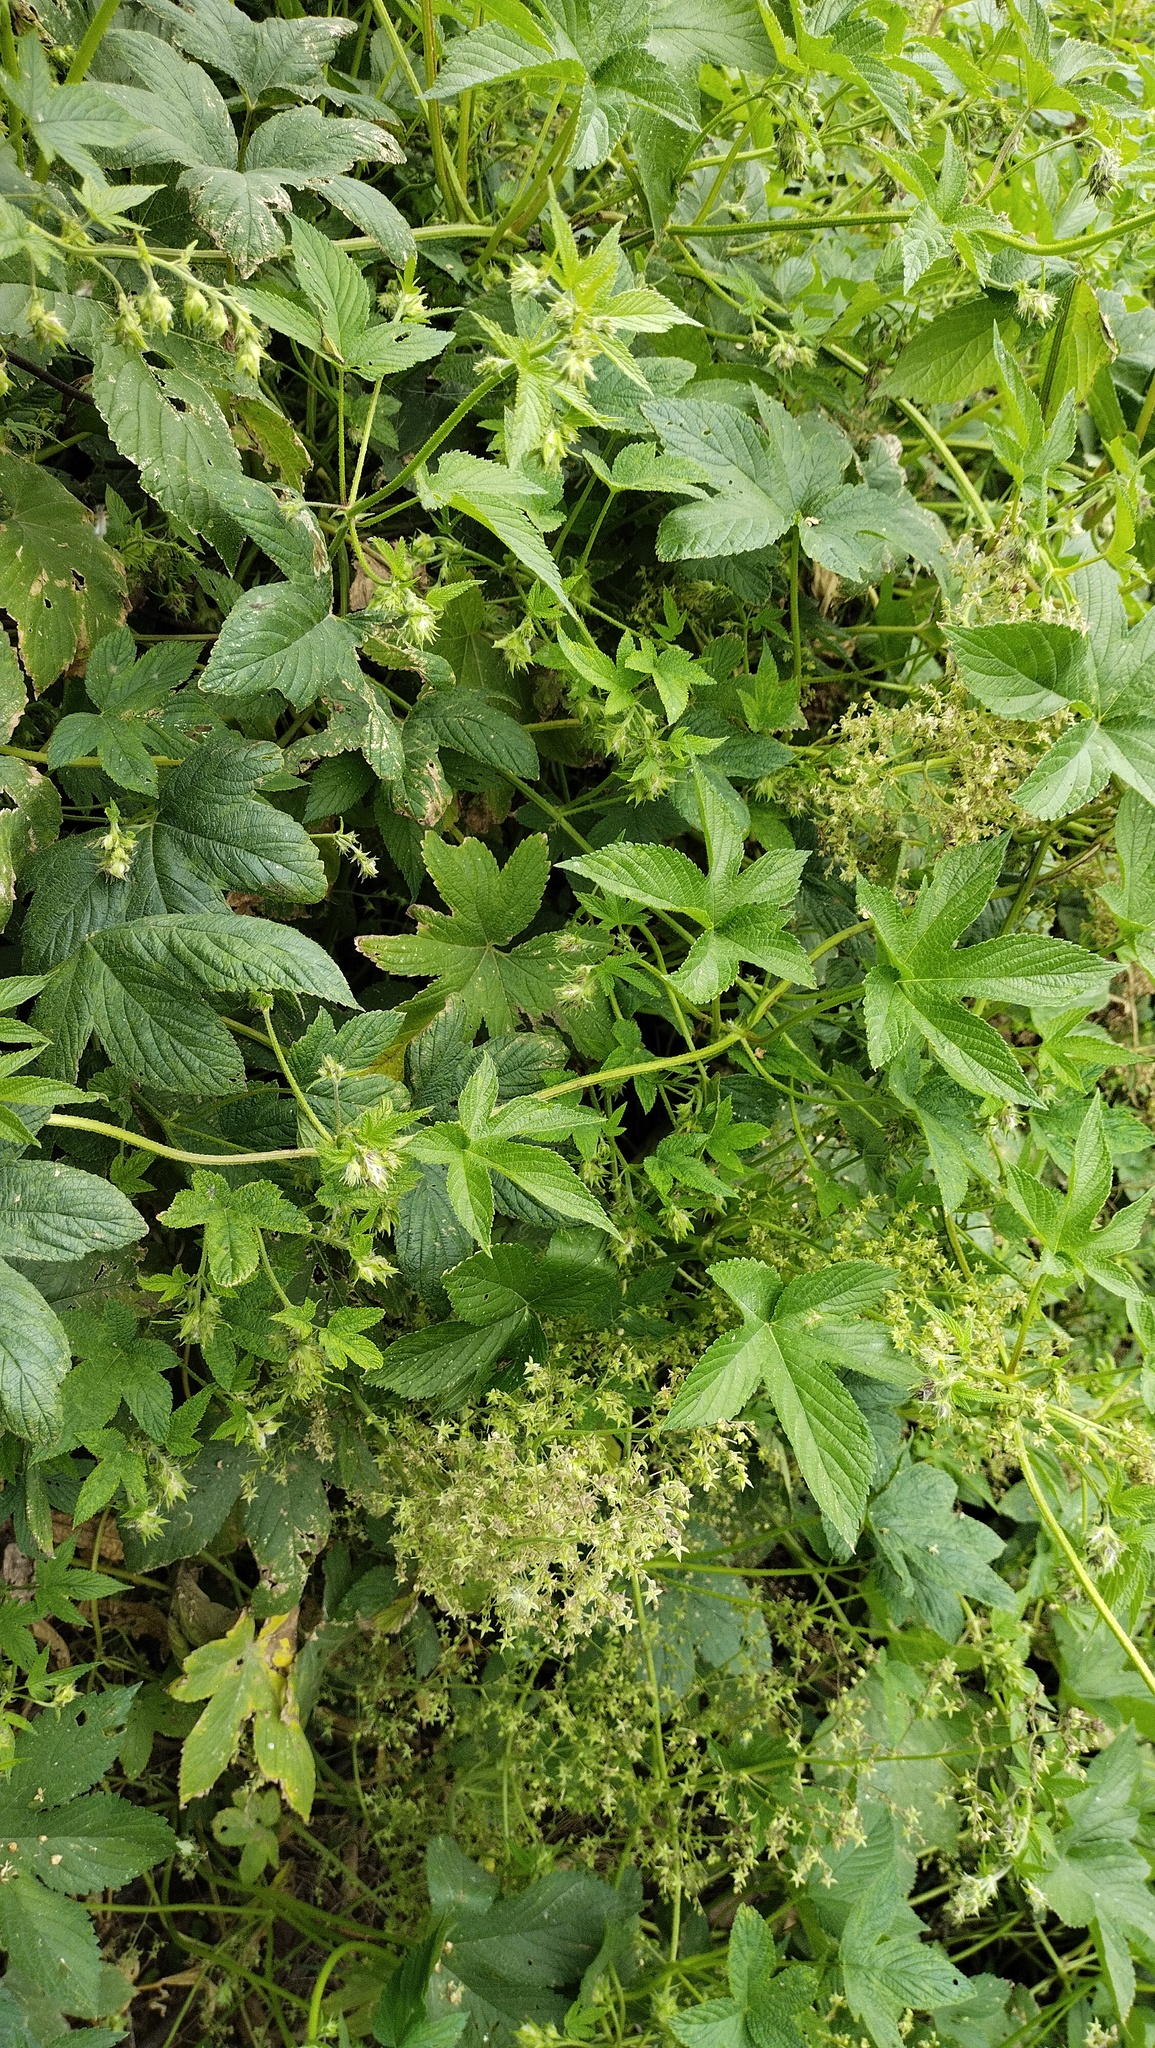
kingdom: Plantae
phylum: Tracheophyta
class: Magnoliopsida
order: Rosales
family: Cannabaceae
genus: Humulus
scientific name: Humulus scandens
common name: Japanese hop
